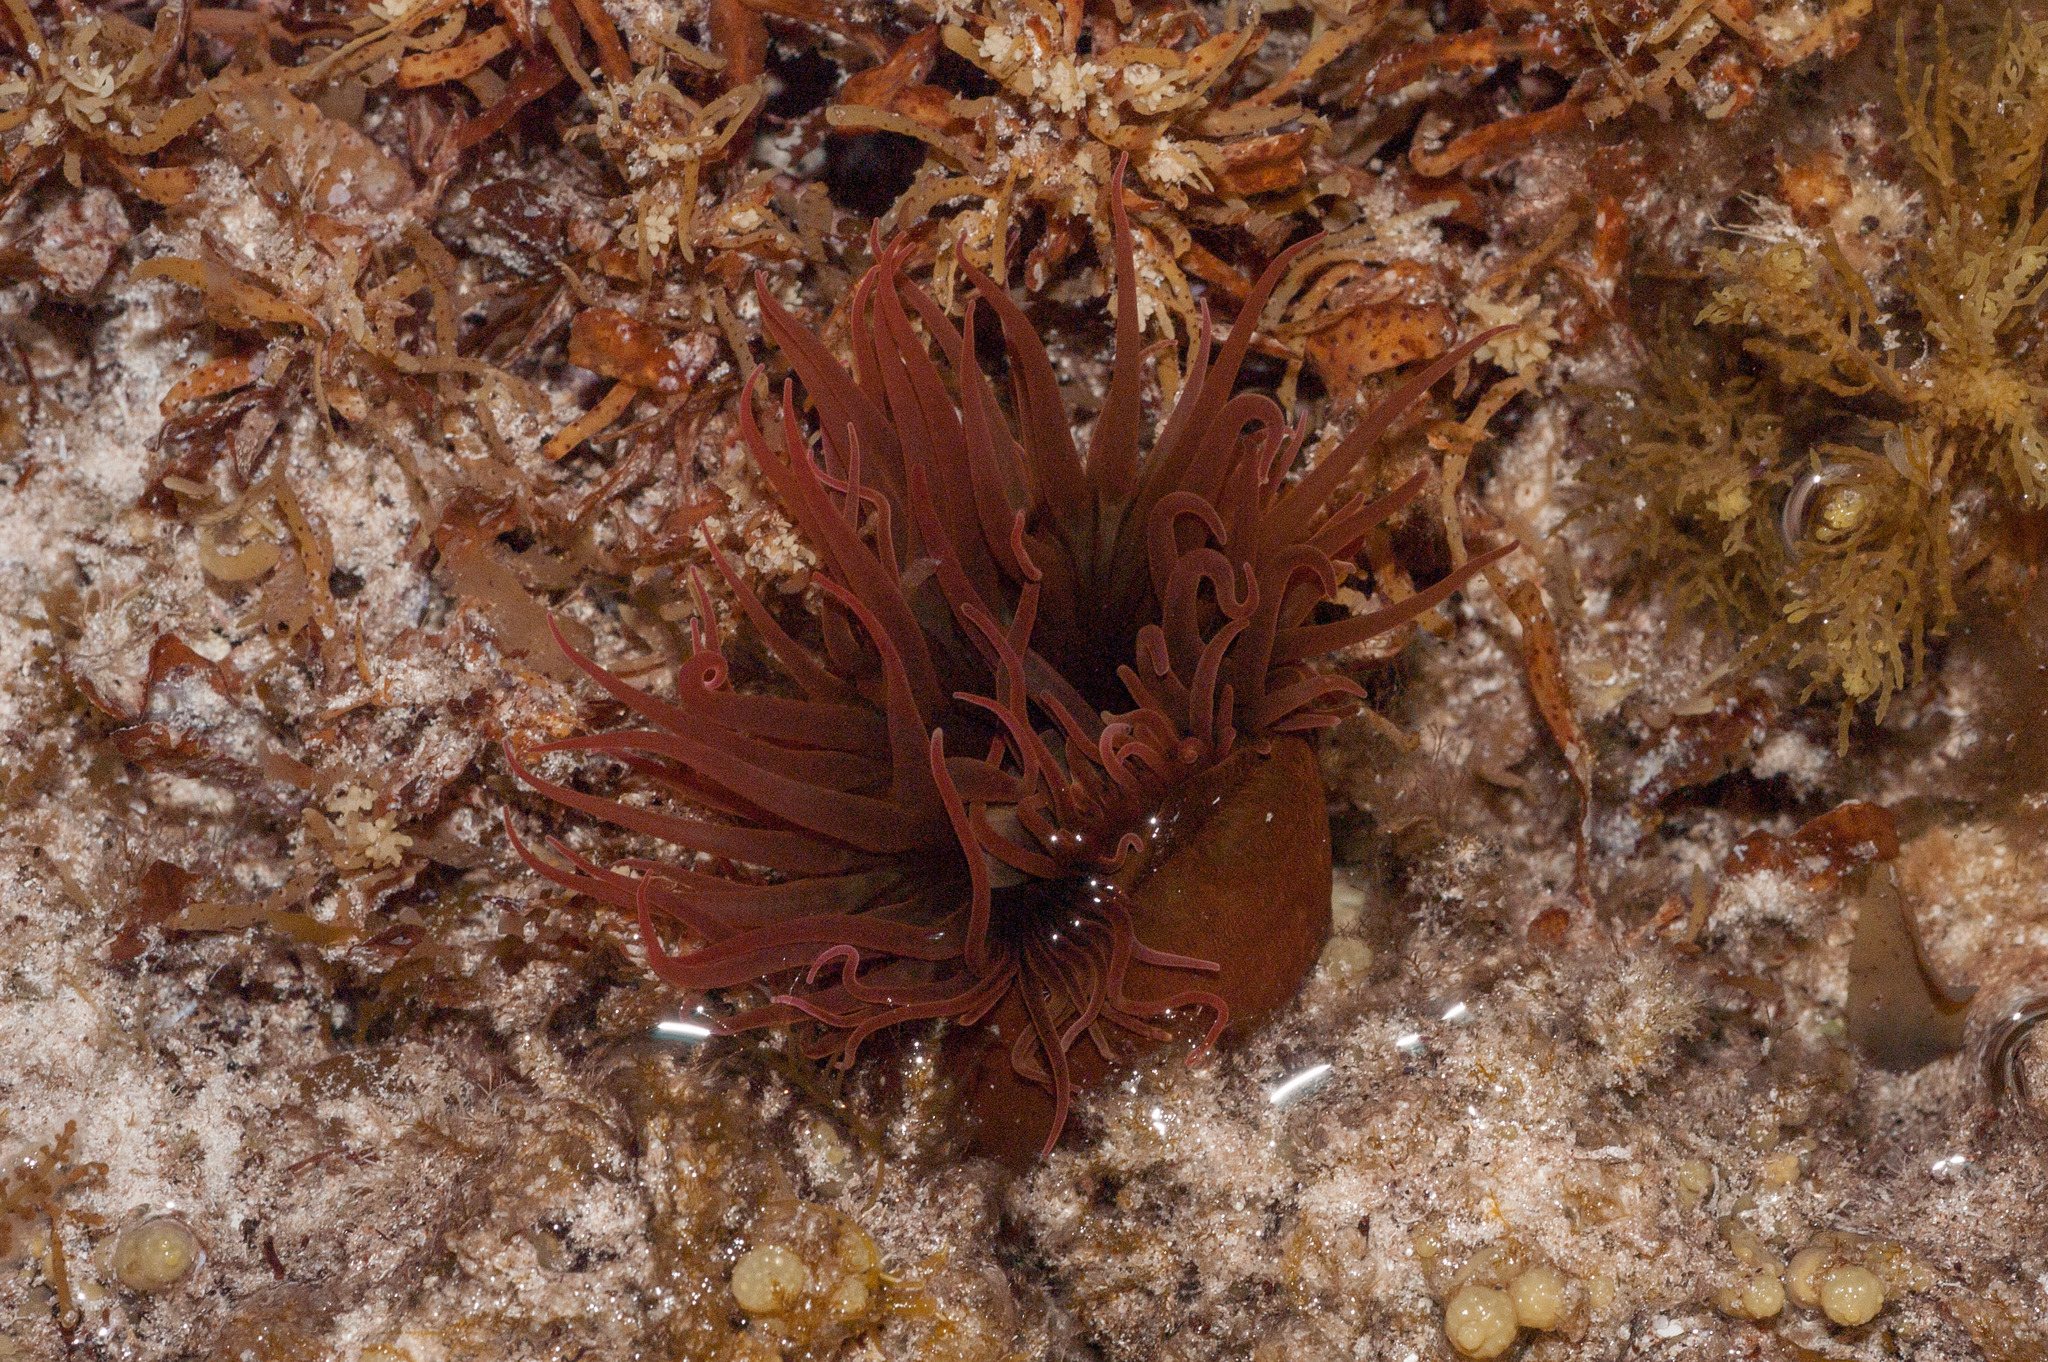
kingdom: Animalia
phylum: Cnidaria
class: Anthozoa
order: Actiniaria
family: Actiniidae
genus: Isanemonia
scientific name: Isanemonia australis
